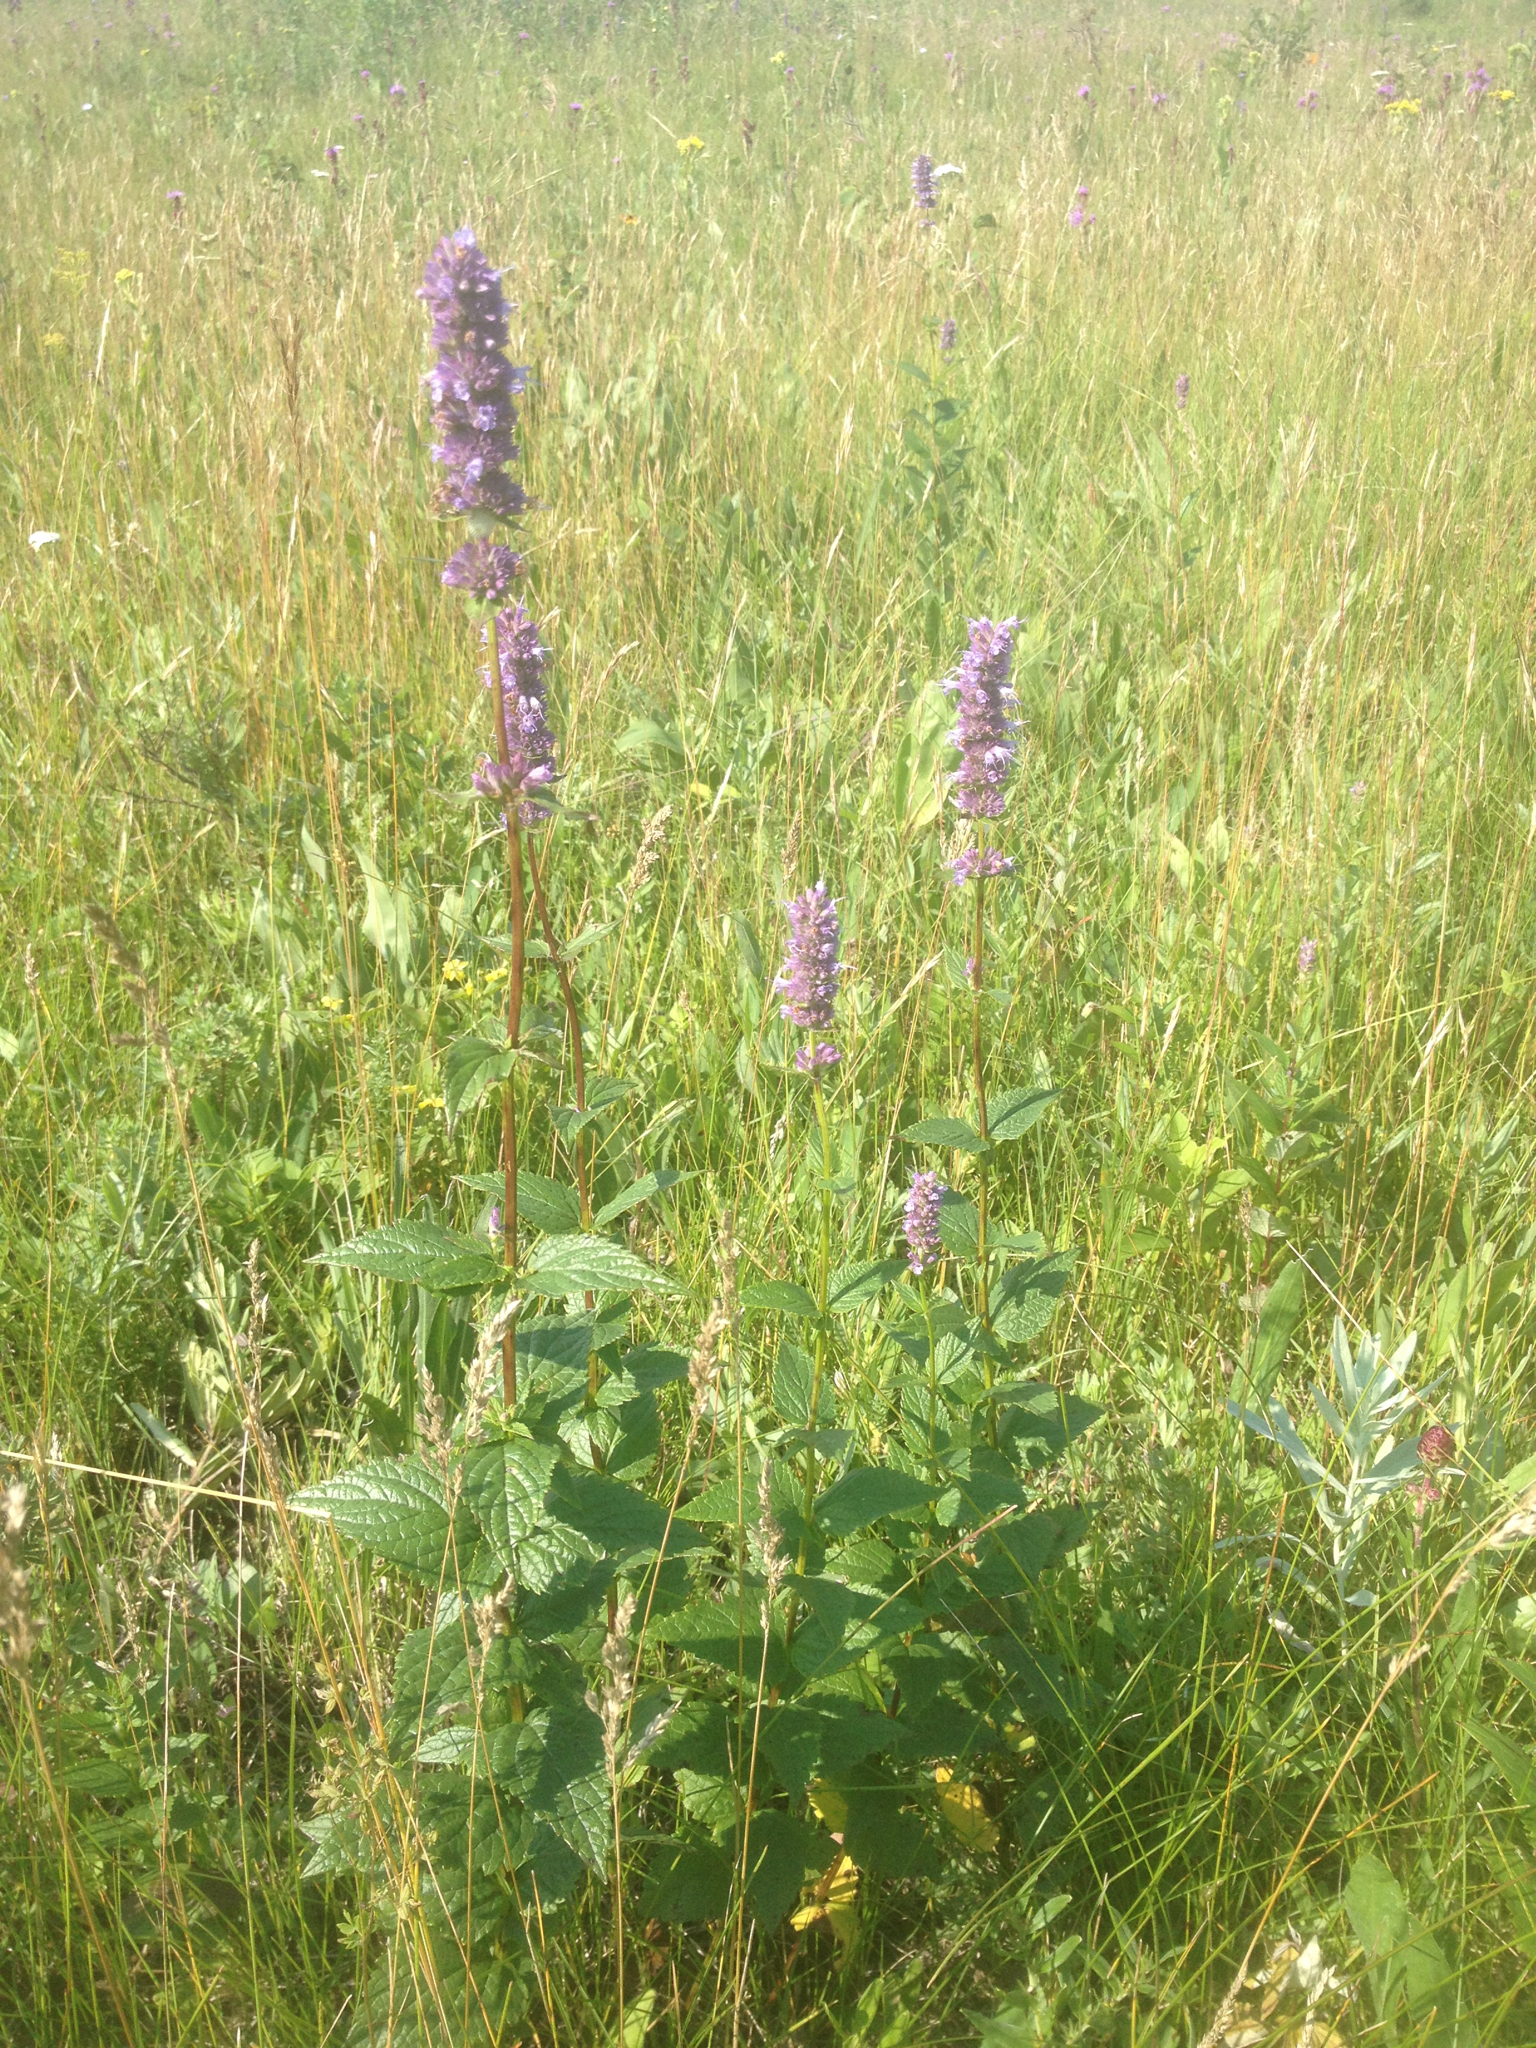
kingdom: Plantae
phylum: Tracheophyta
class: Magnoliopsida
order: Lamiales
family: Lamiaceae
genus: Agastache
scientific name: Agastache foeniculum
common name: Anise hyssop
